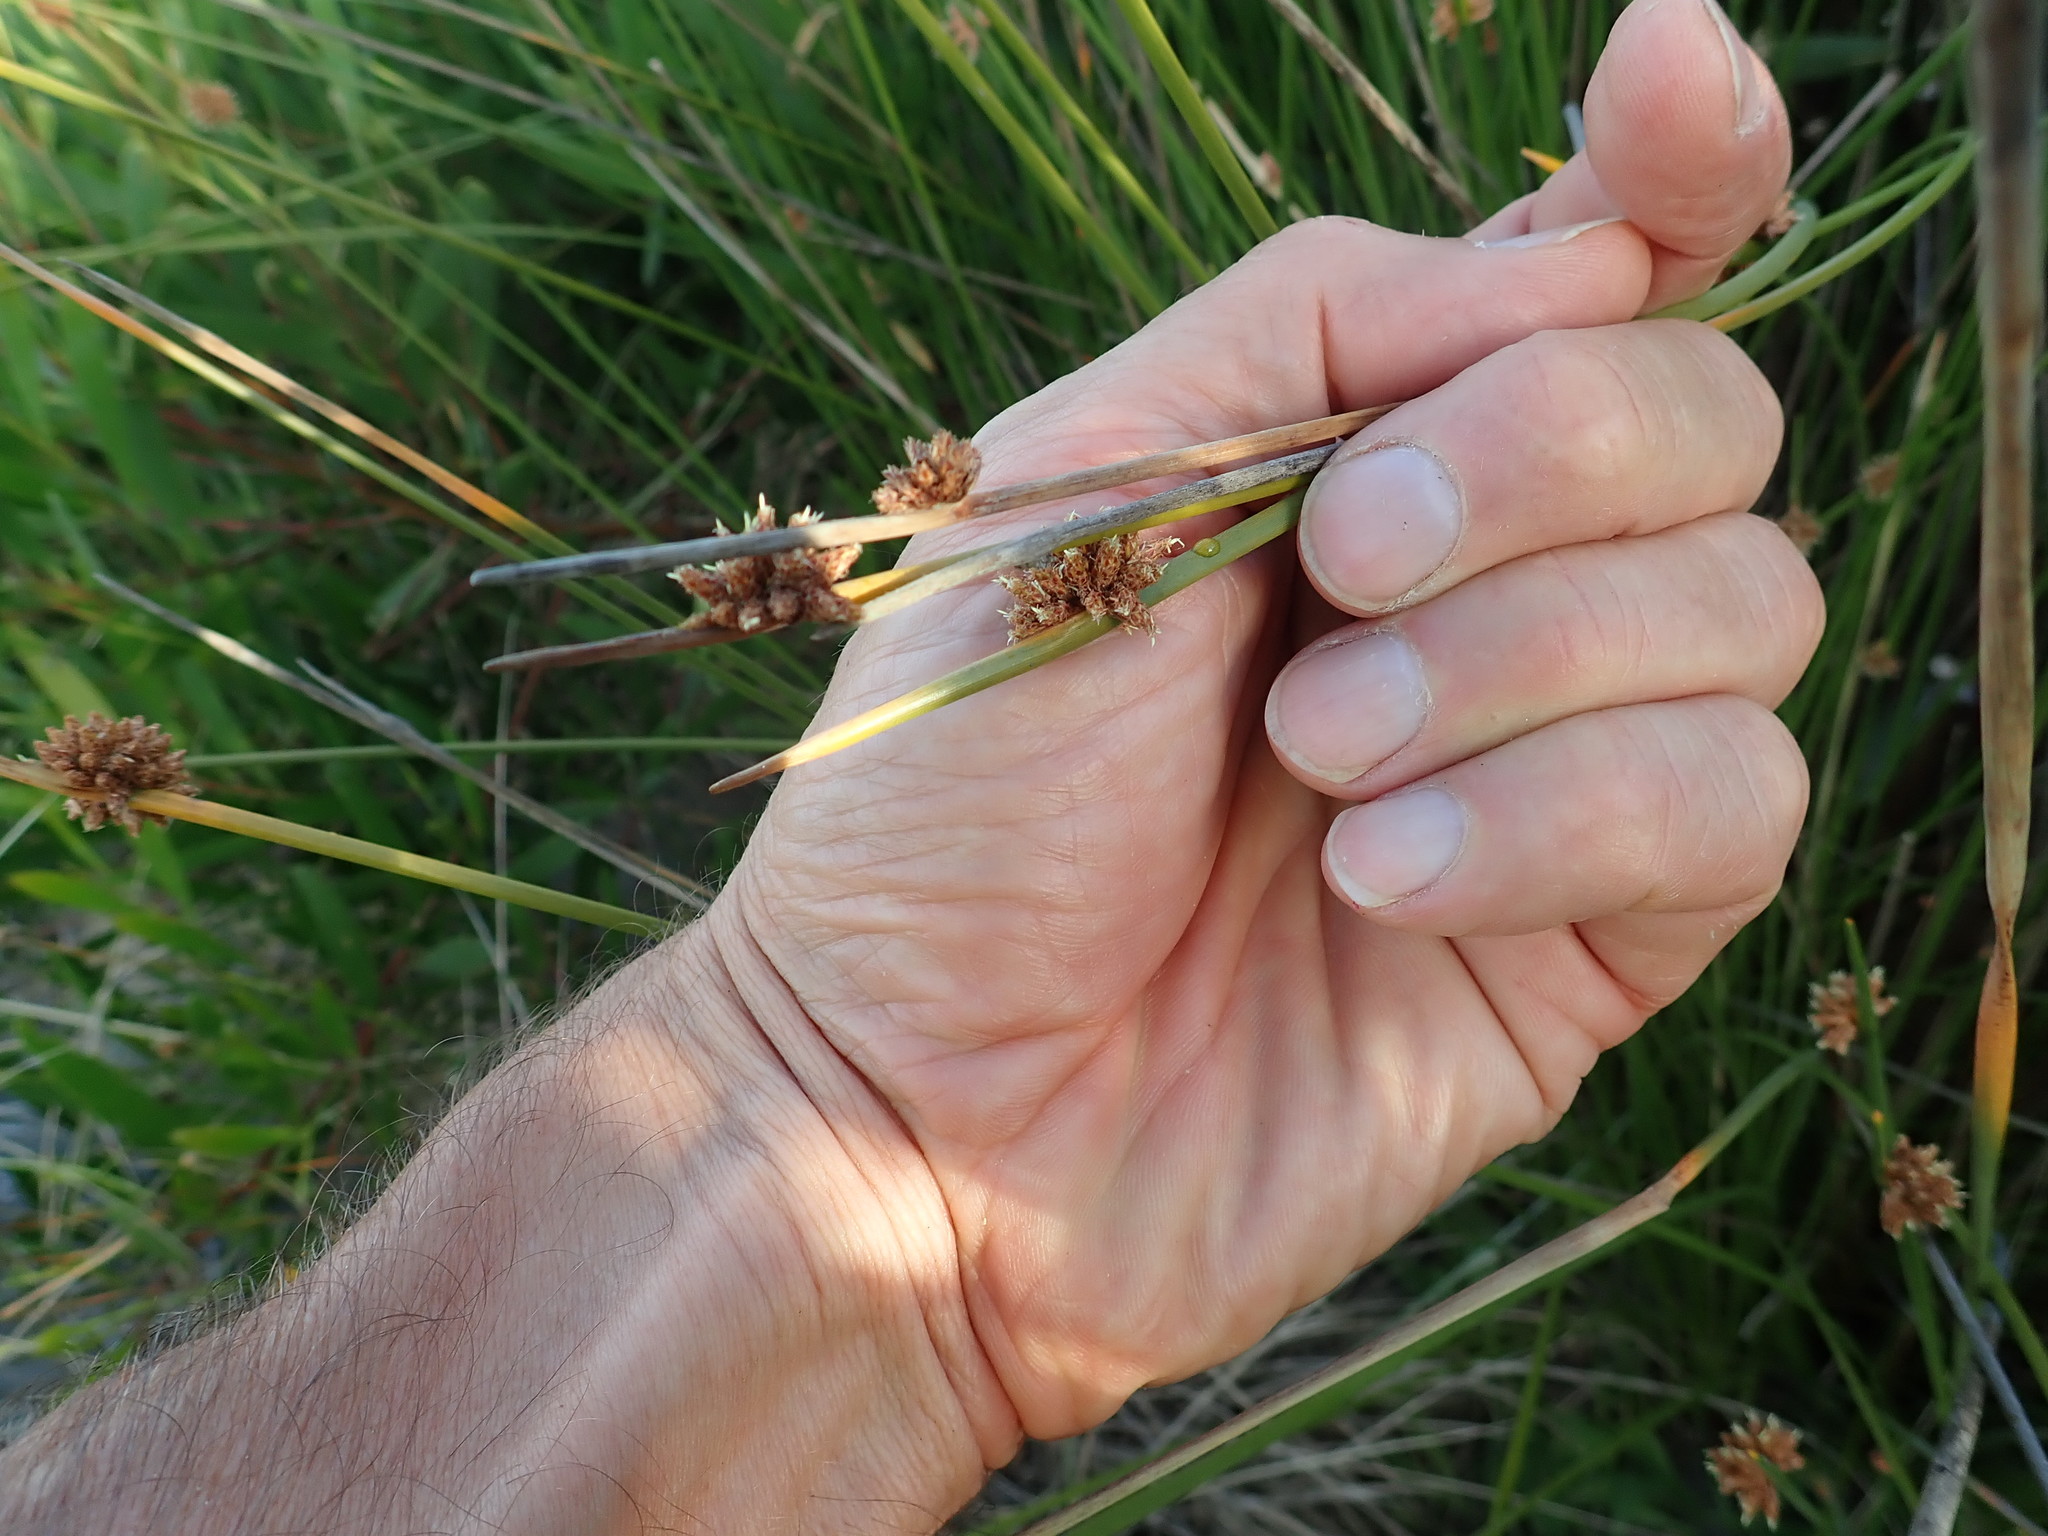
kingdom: Plantae
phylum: Tracheophyta
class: Liliopsida
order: Poales
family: Cyperaceae
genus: Ficinia
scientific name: Ficinia nodosa
